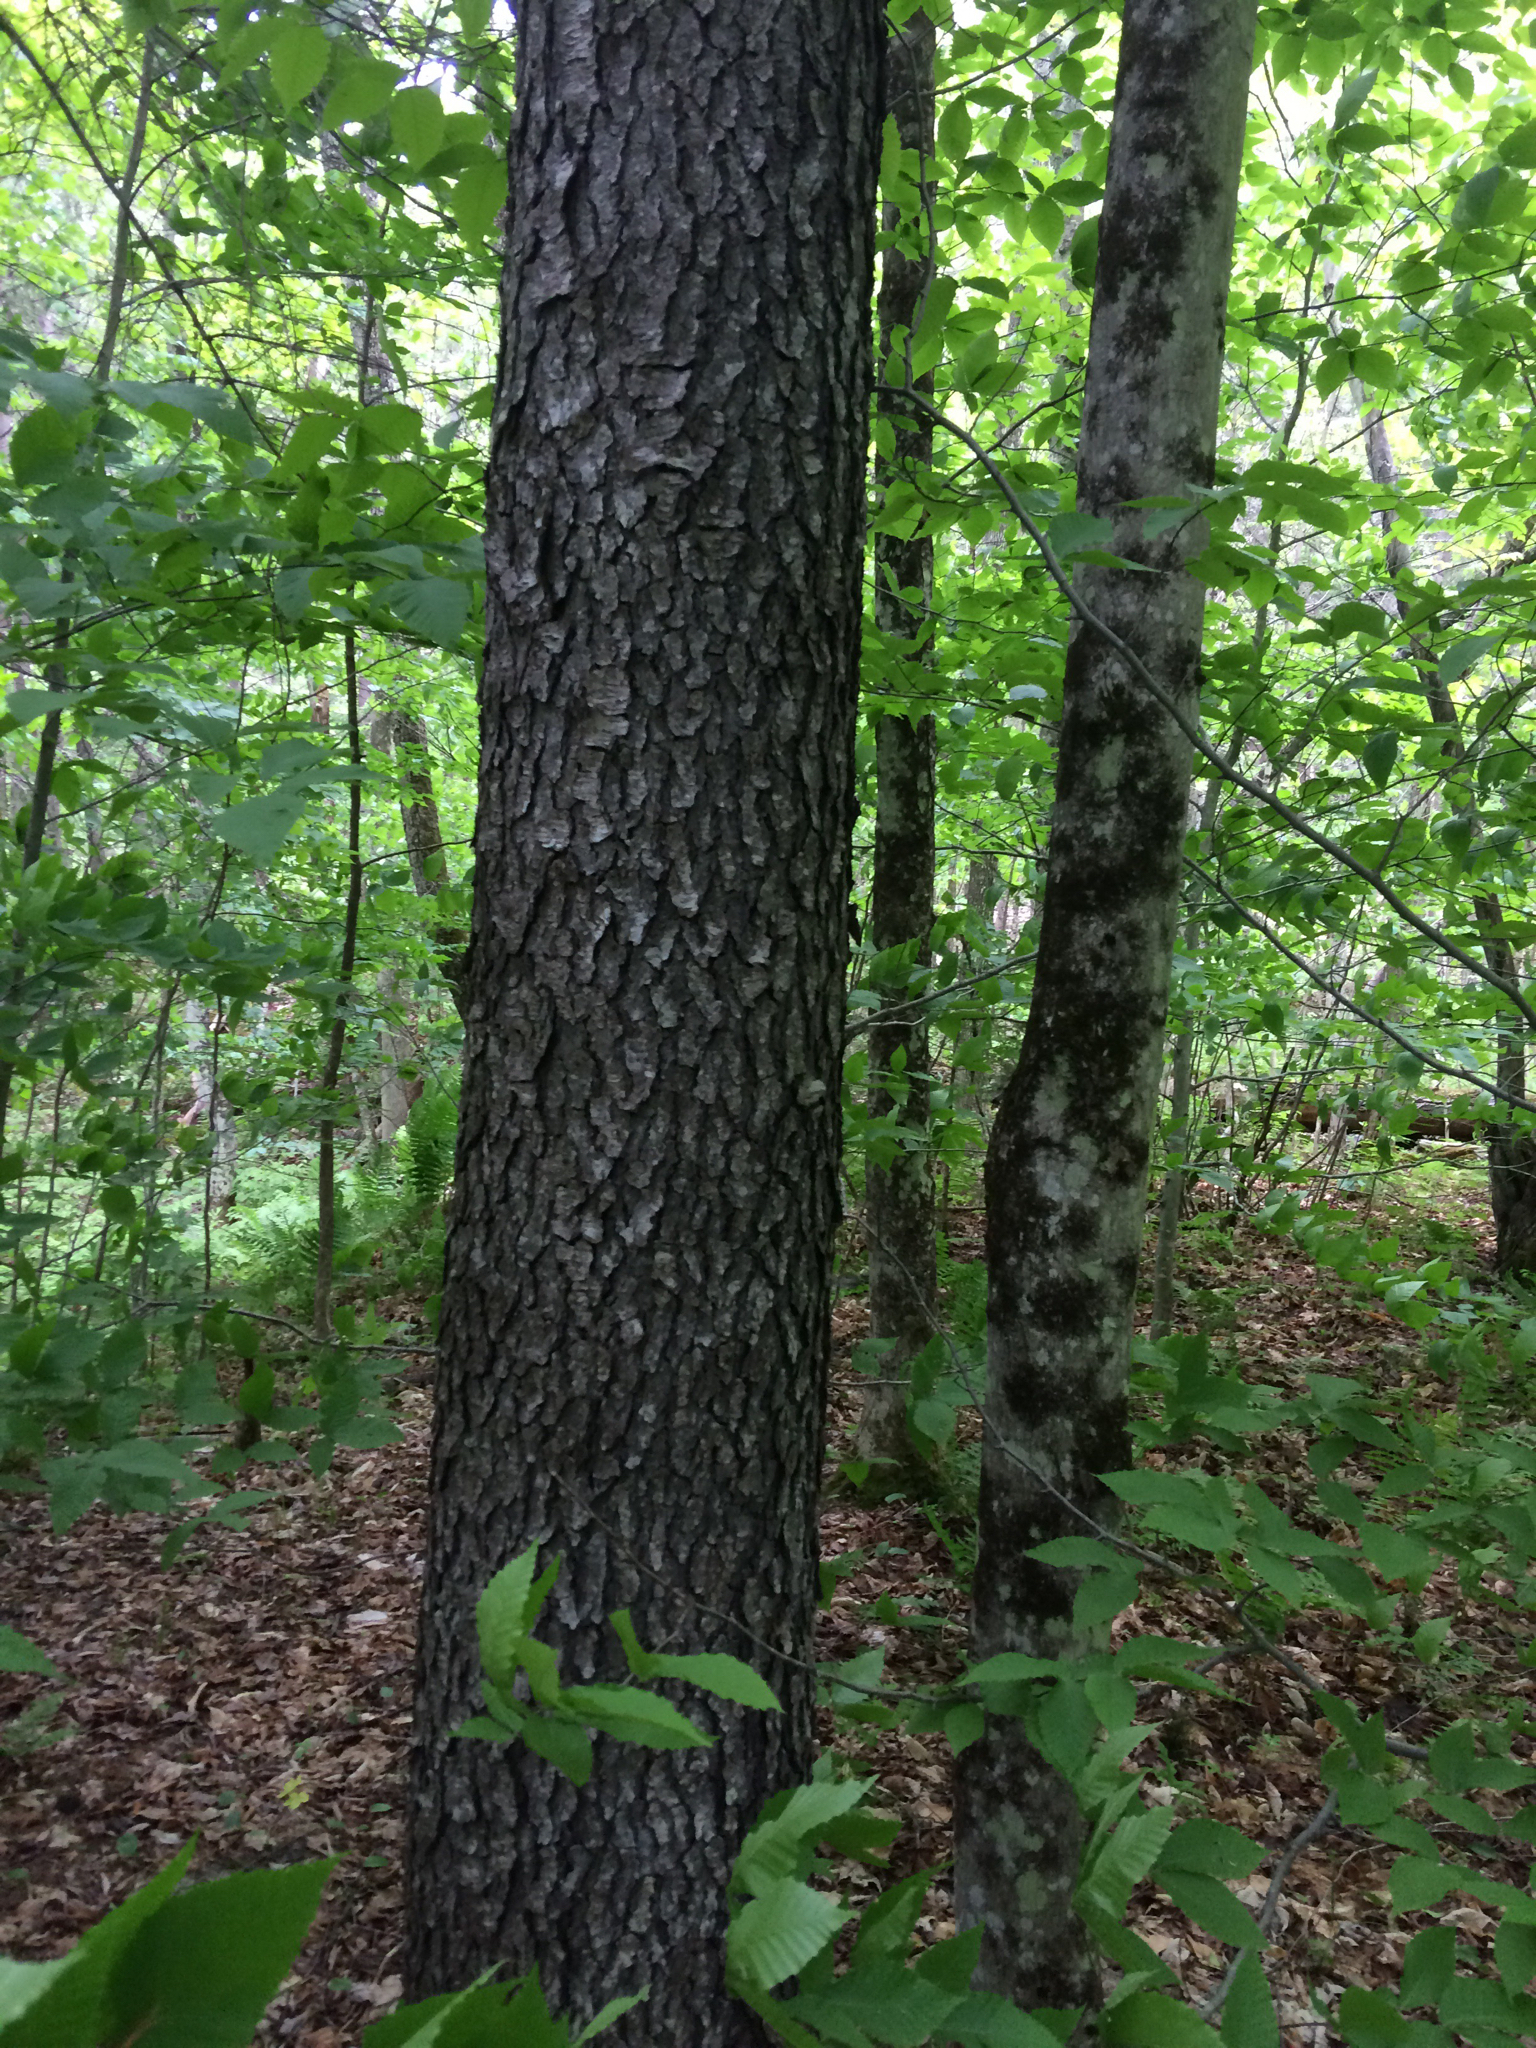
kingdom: Plantae
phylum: Tracheophyta
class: Magnoliopsida
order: Rosales
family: Rosaceae
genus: Prunus
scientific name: Prunus serotina
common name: Black cherry
